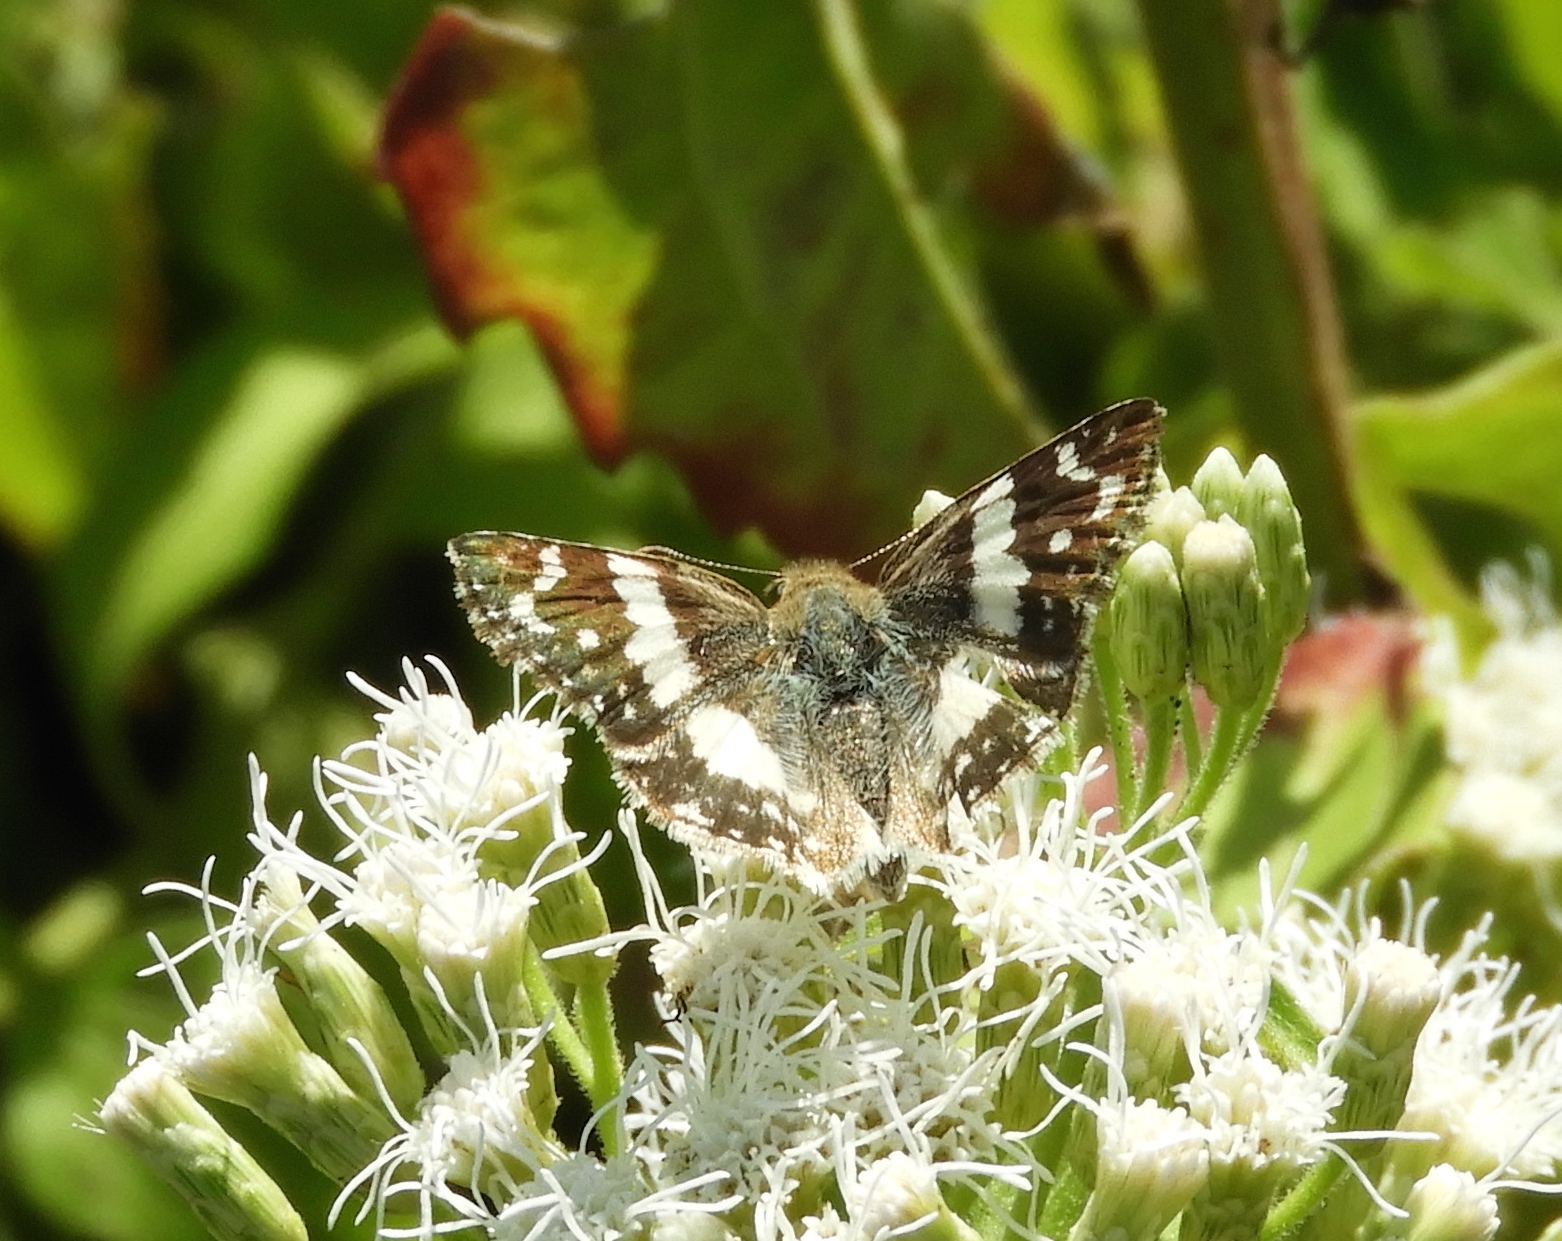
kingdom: Animalia
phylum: Arthropoda
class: Insecta
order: Lepidoptera
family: Hesperiidae
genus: Heliopyrgus
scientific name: Heliopyrgus domicella
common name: Erichson's white skipper
